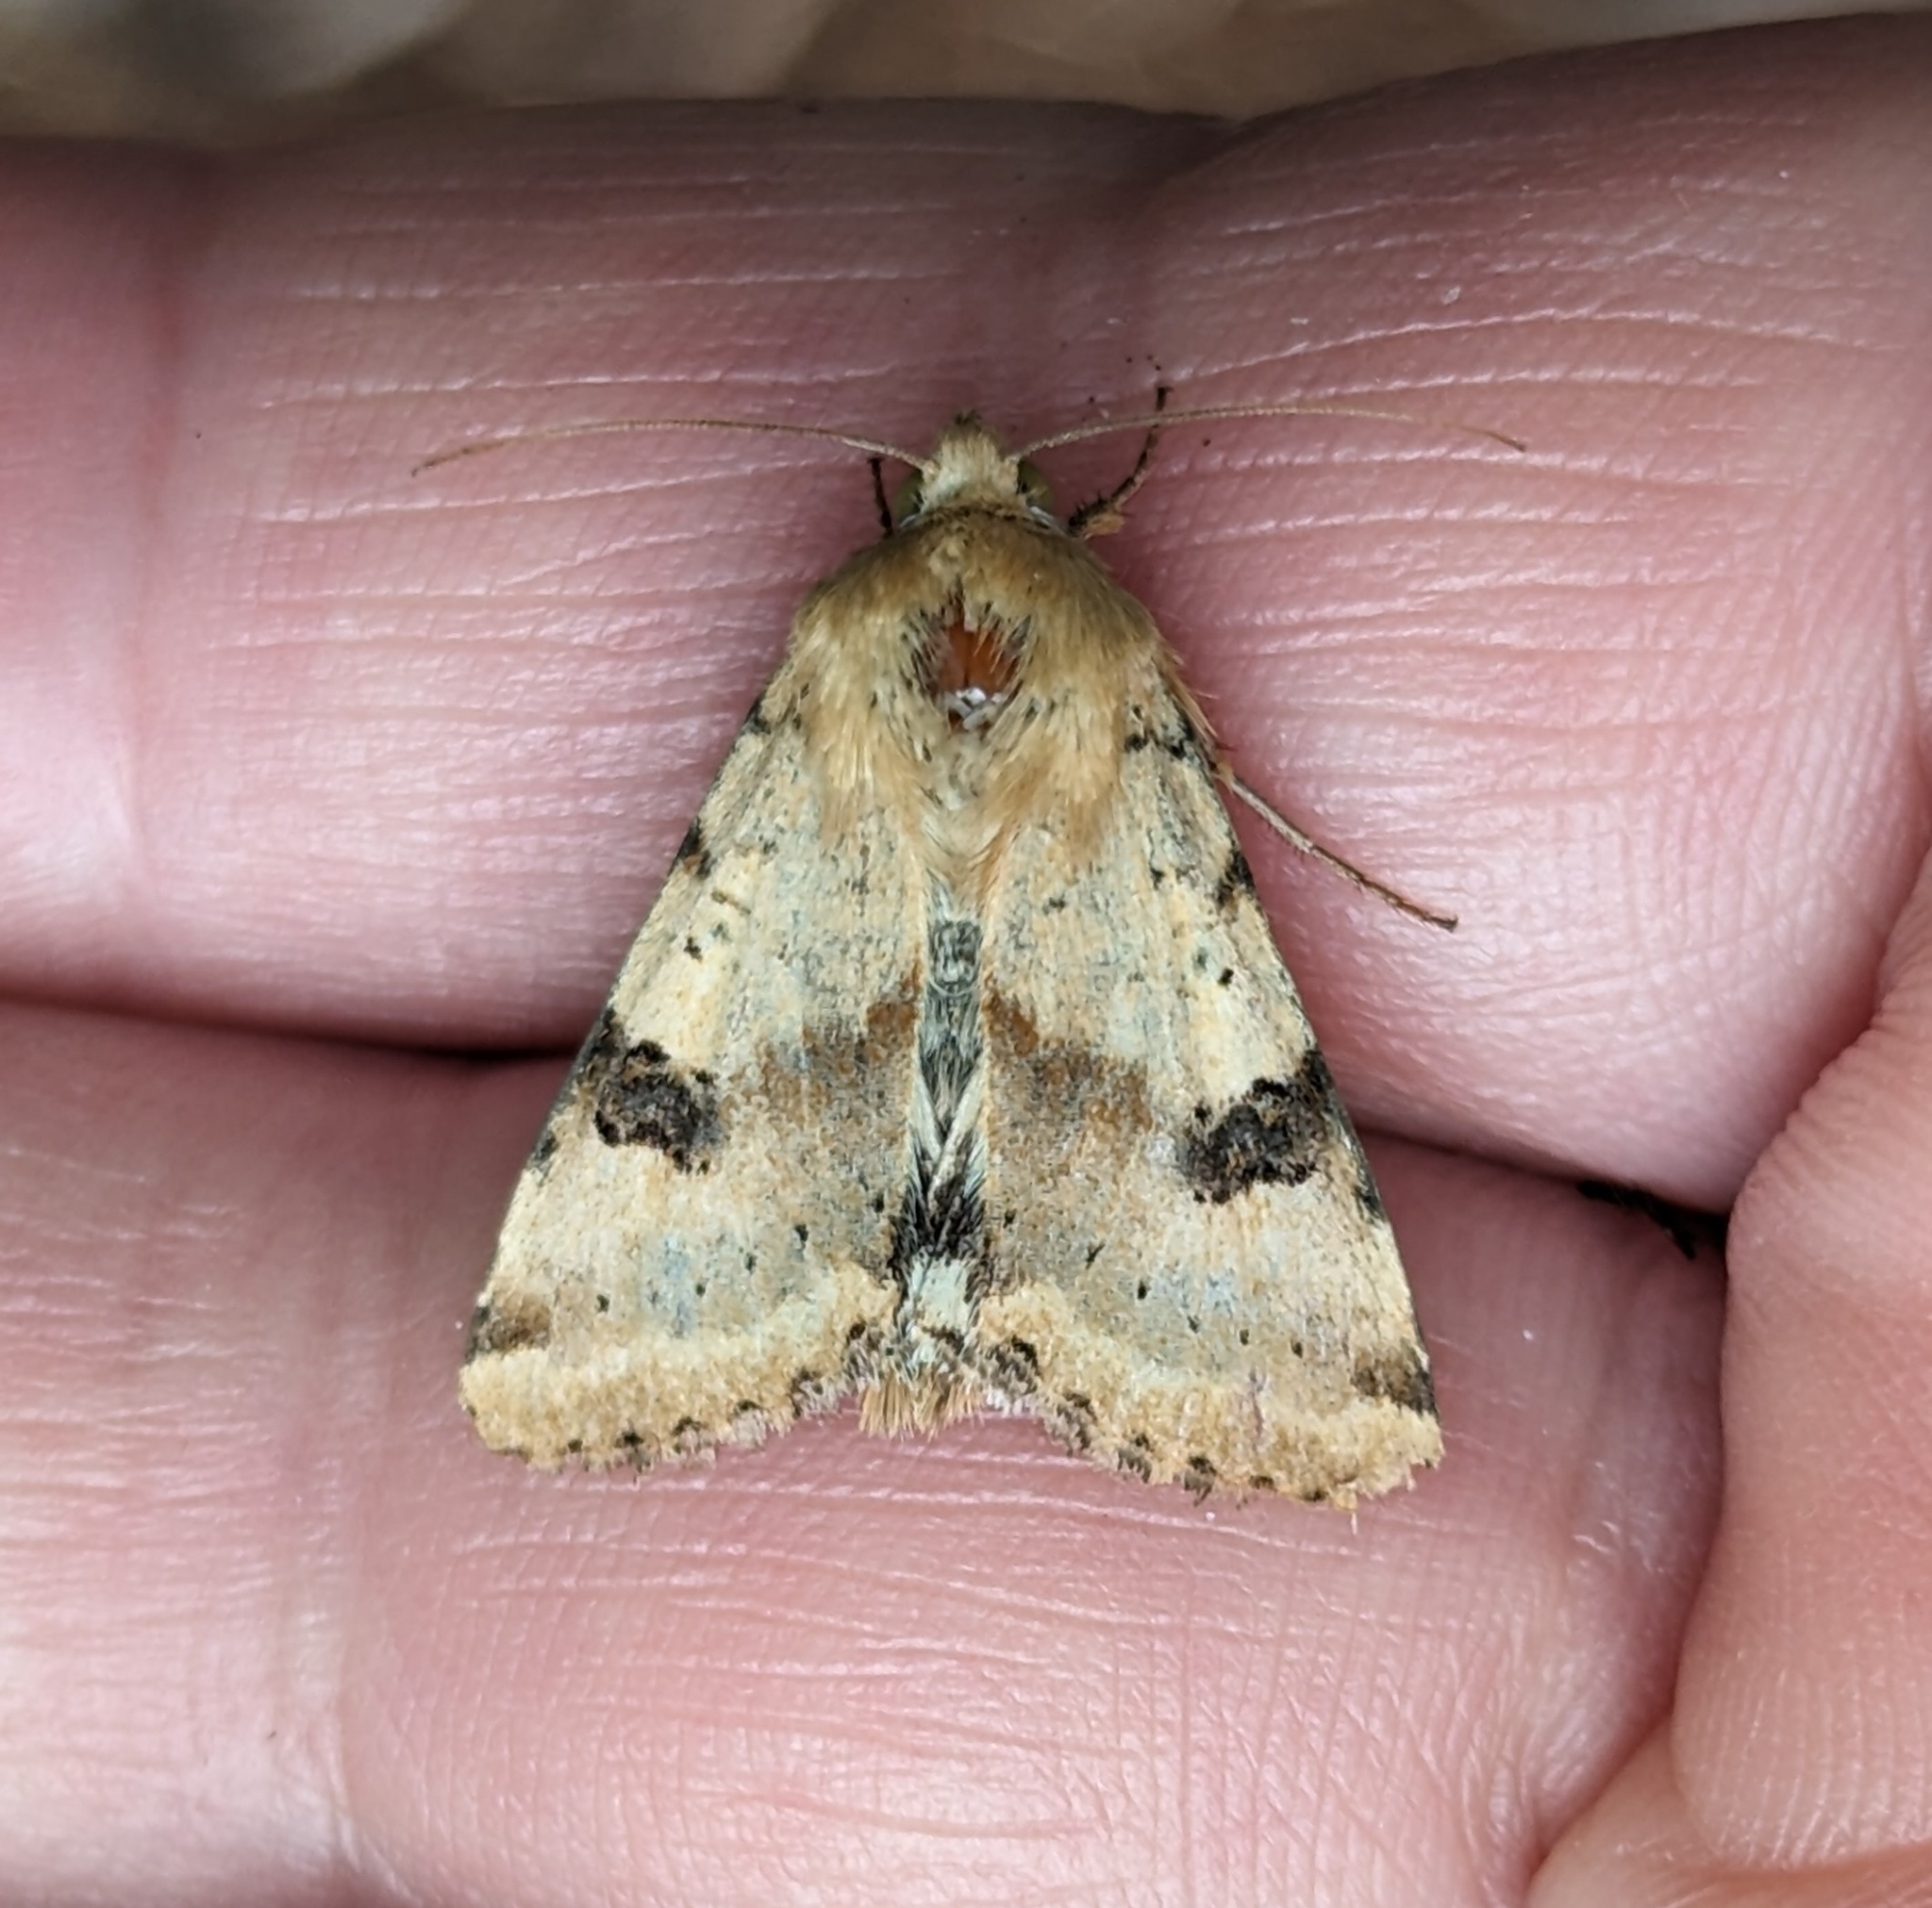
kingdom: Animalia
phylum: Arthropoda
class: Insecta
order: Lepidoptera
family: Noctuidae
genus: Heliothis
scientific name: Heliothis phloxiphaga
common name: Darker spotted straw moth
